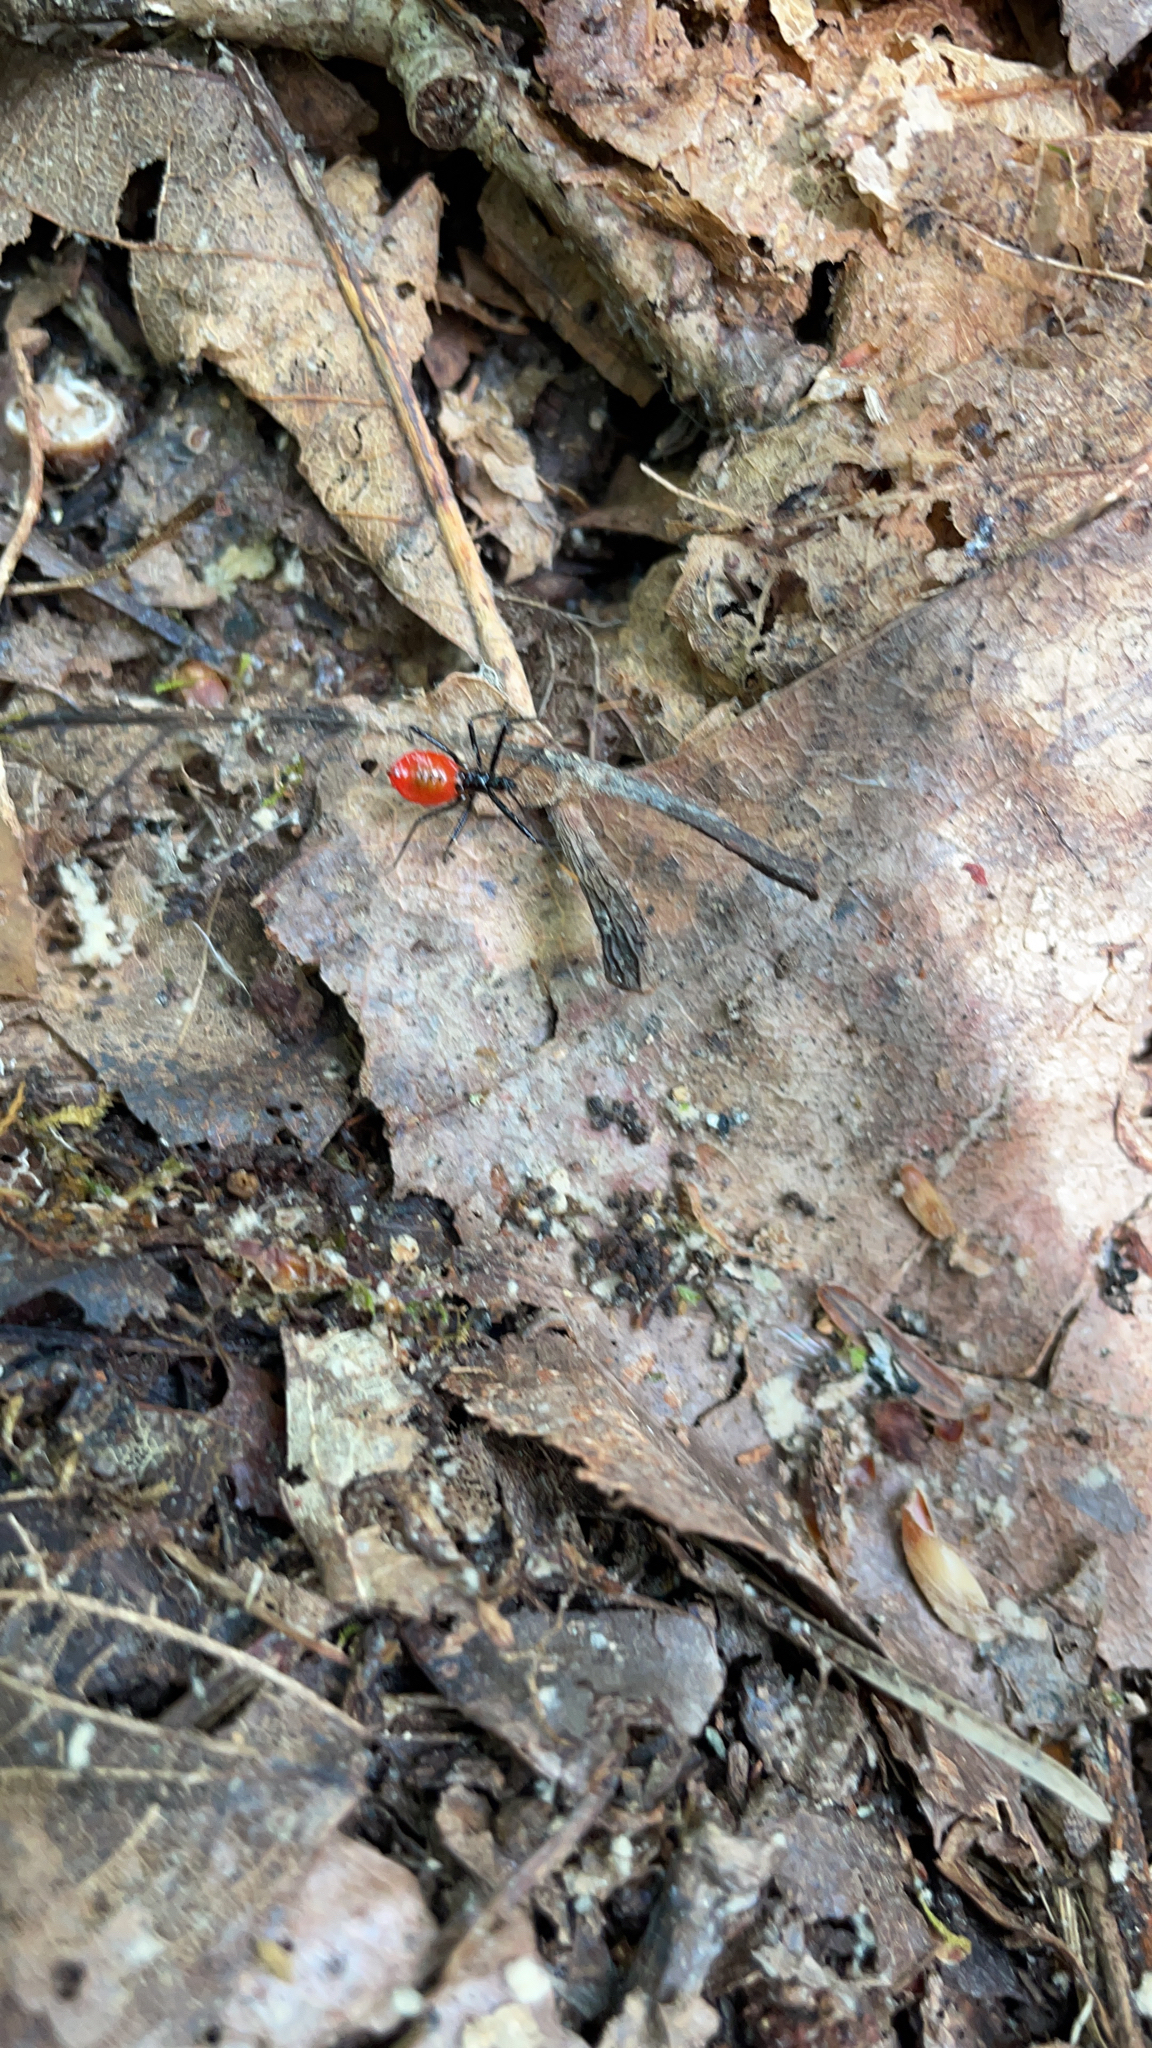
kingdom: Animalia
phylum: Arthropoda
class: Insecta
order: Hemiptera
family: Reduviidae
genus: Arilus
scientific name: Arilus cristatus
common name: North american wheel bug
